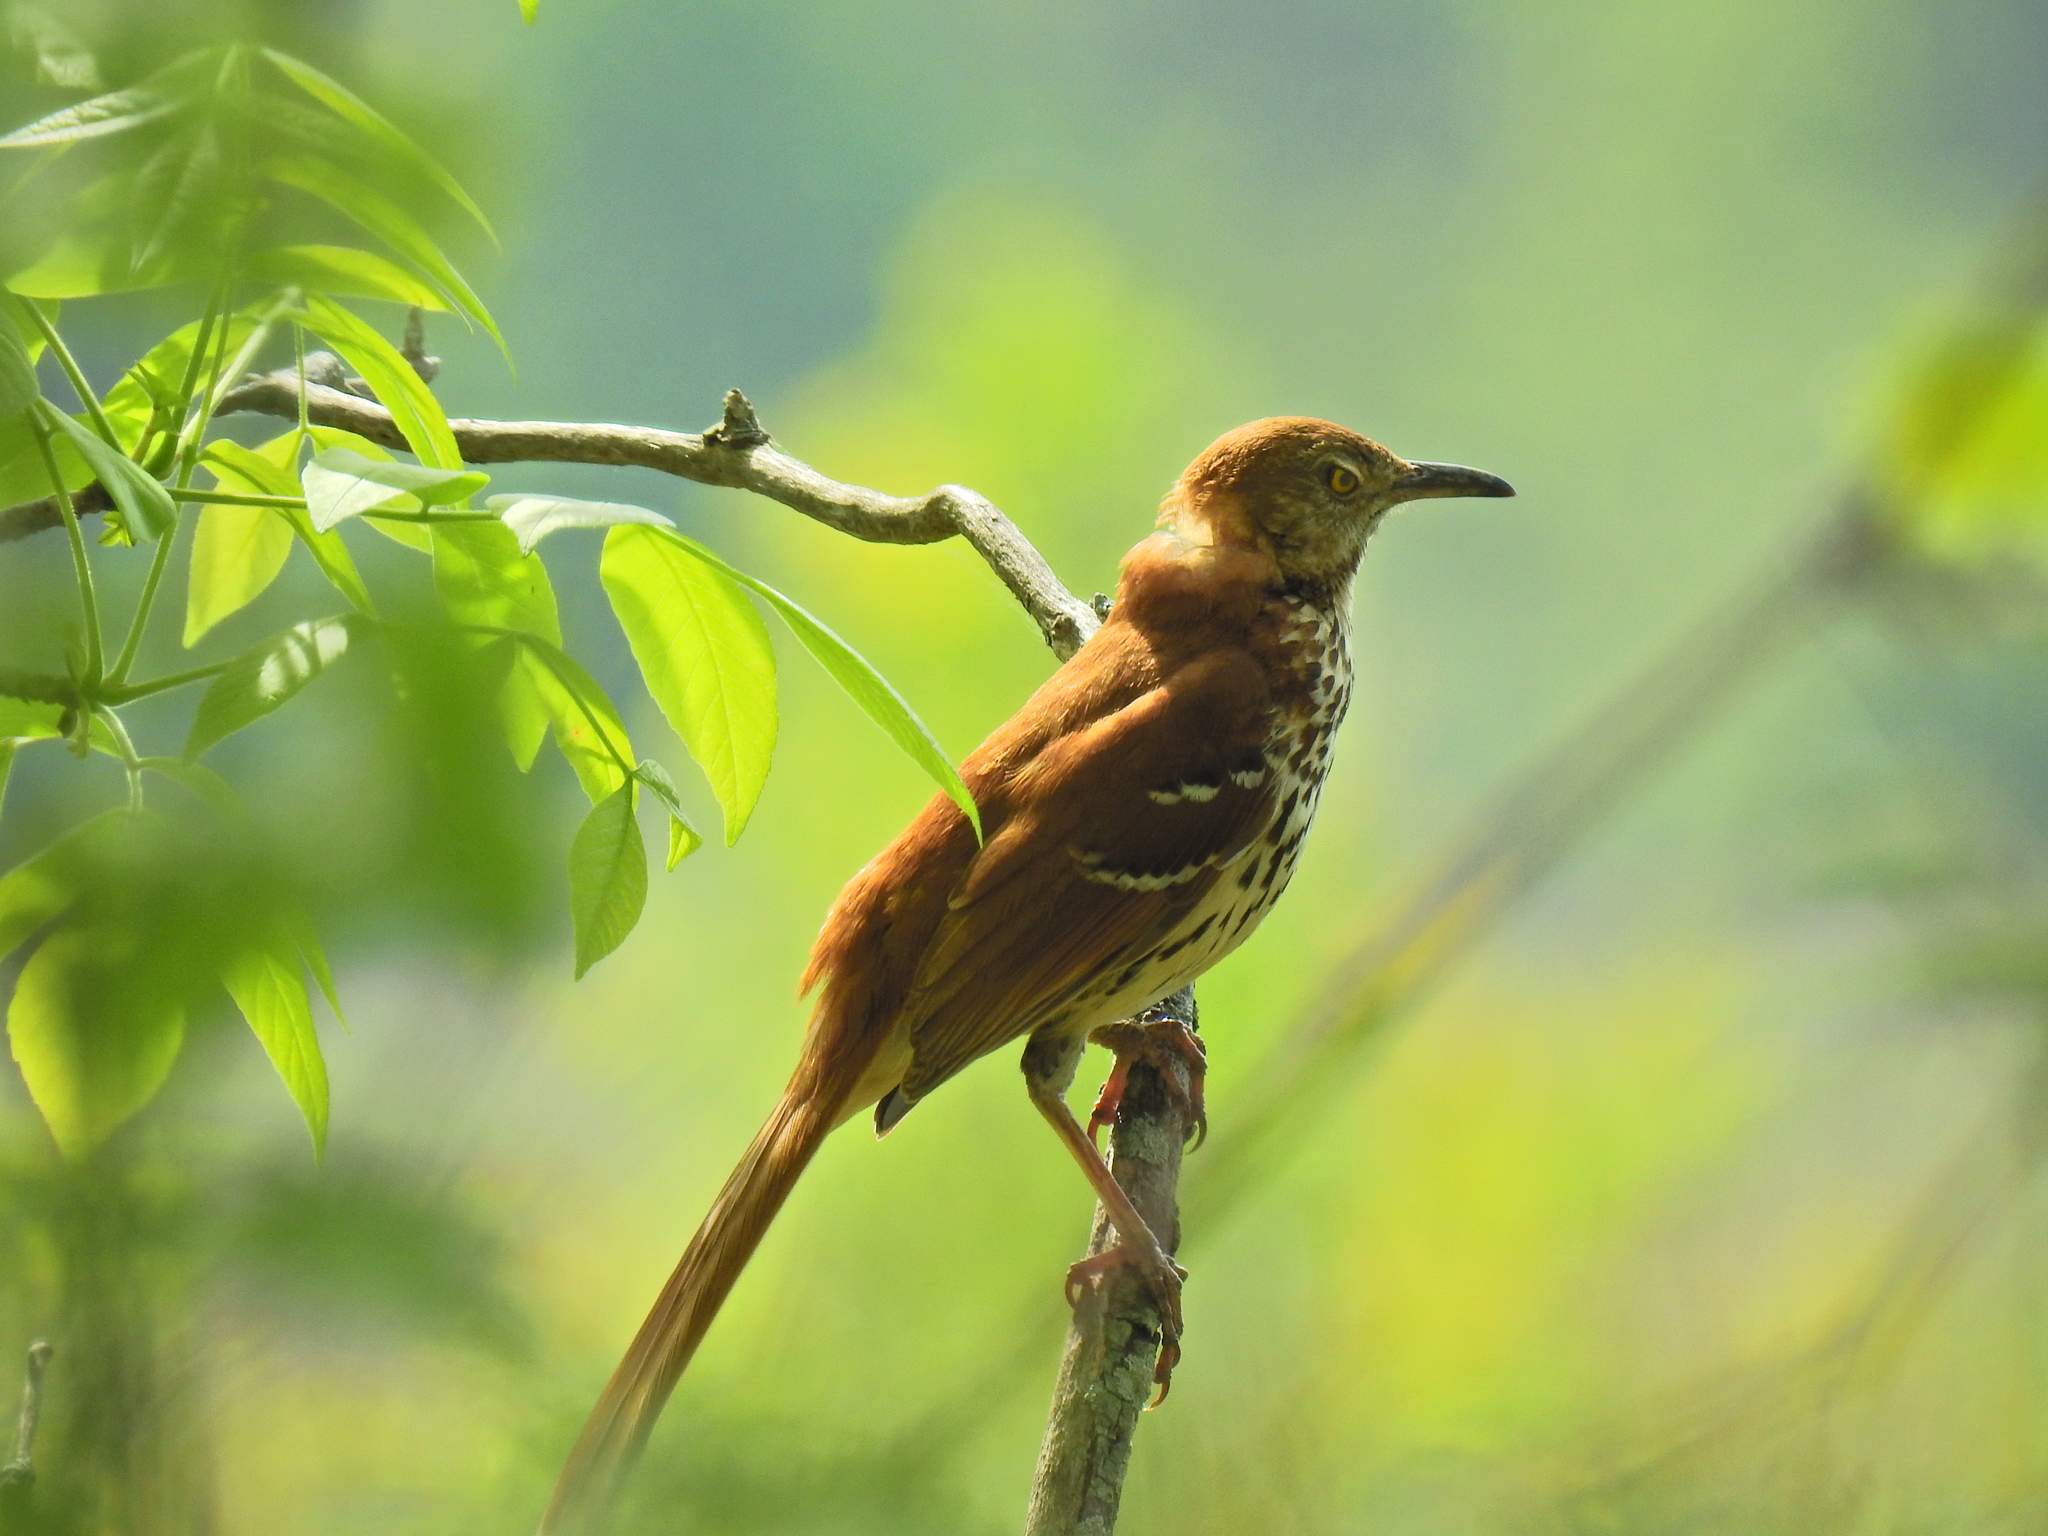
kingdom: Animalia
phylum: Chordata
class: Aves
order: Passeriformes
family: Mimidae
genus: Toxostoma
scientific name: Toxostoma rufum
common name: Brown thrasher
